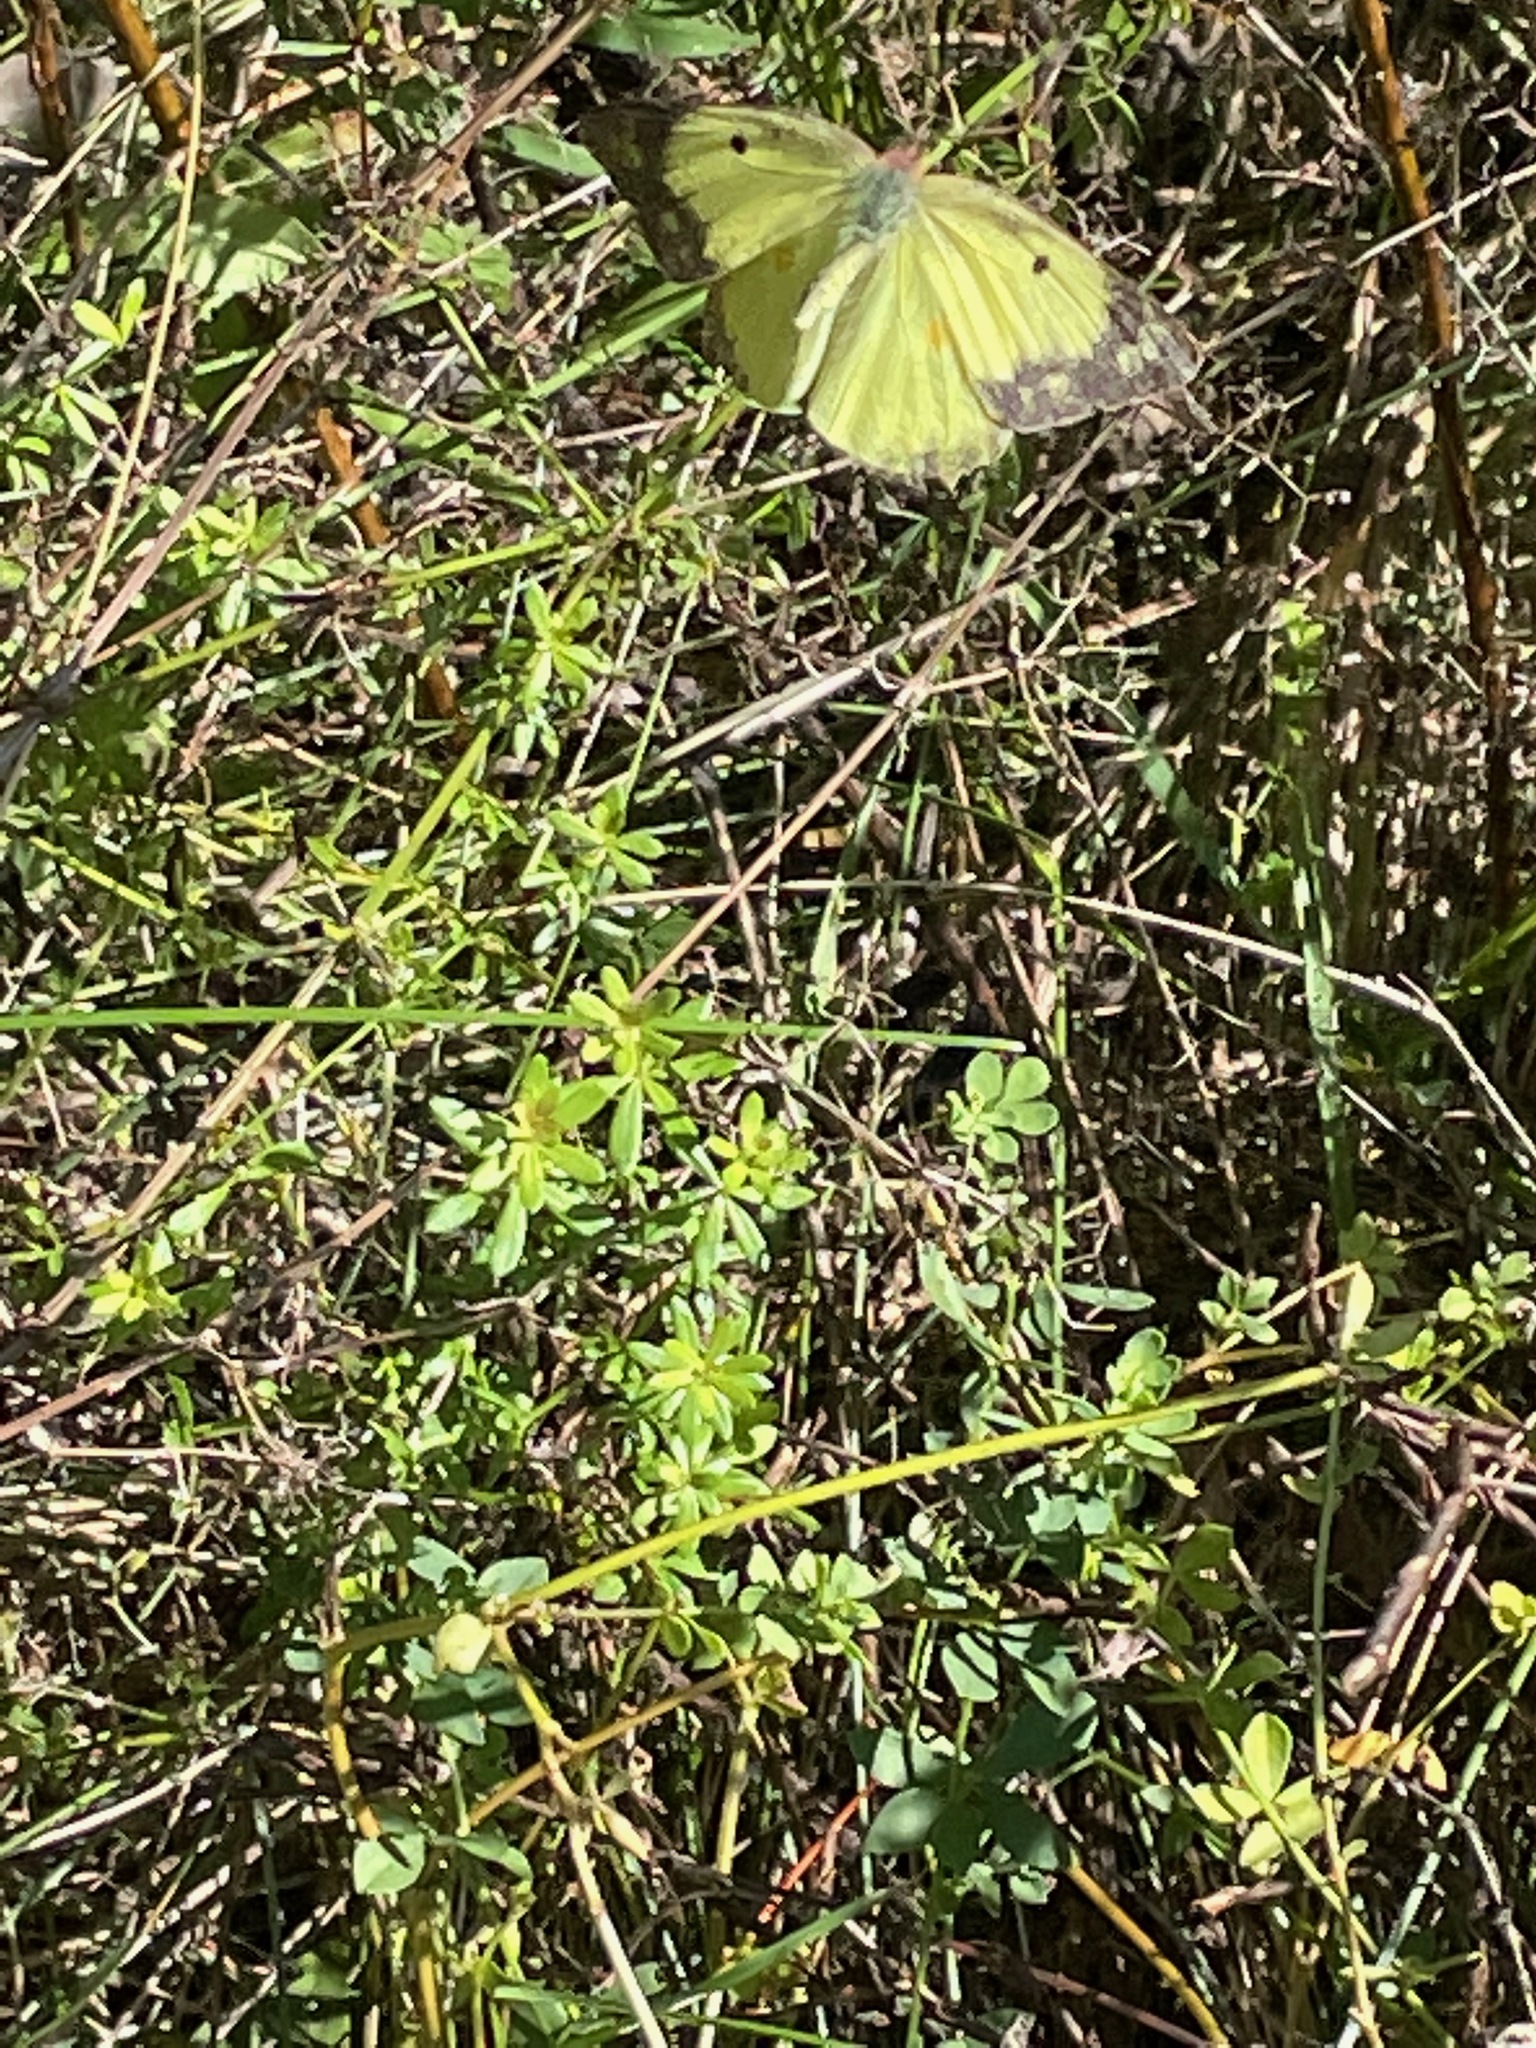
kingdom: Animalia
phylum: Arthropoda
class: Insecta
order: Lepidoptera
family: Pieridae
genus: Colias
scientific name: Colias philodice
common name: Clouded sulphur
